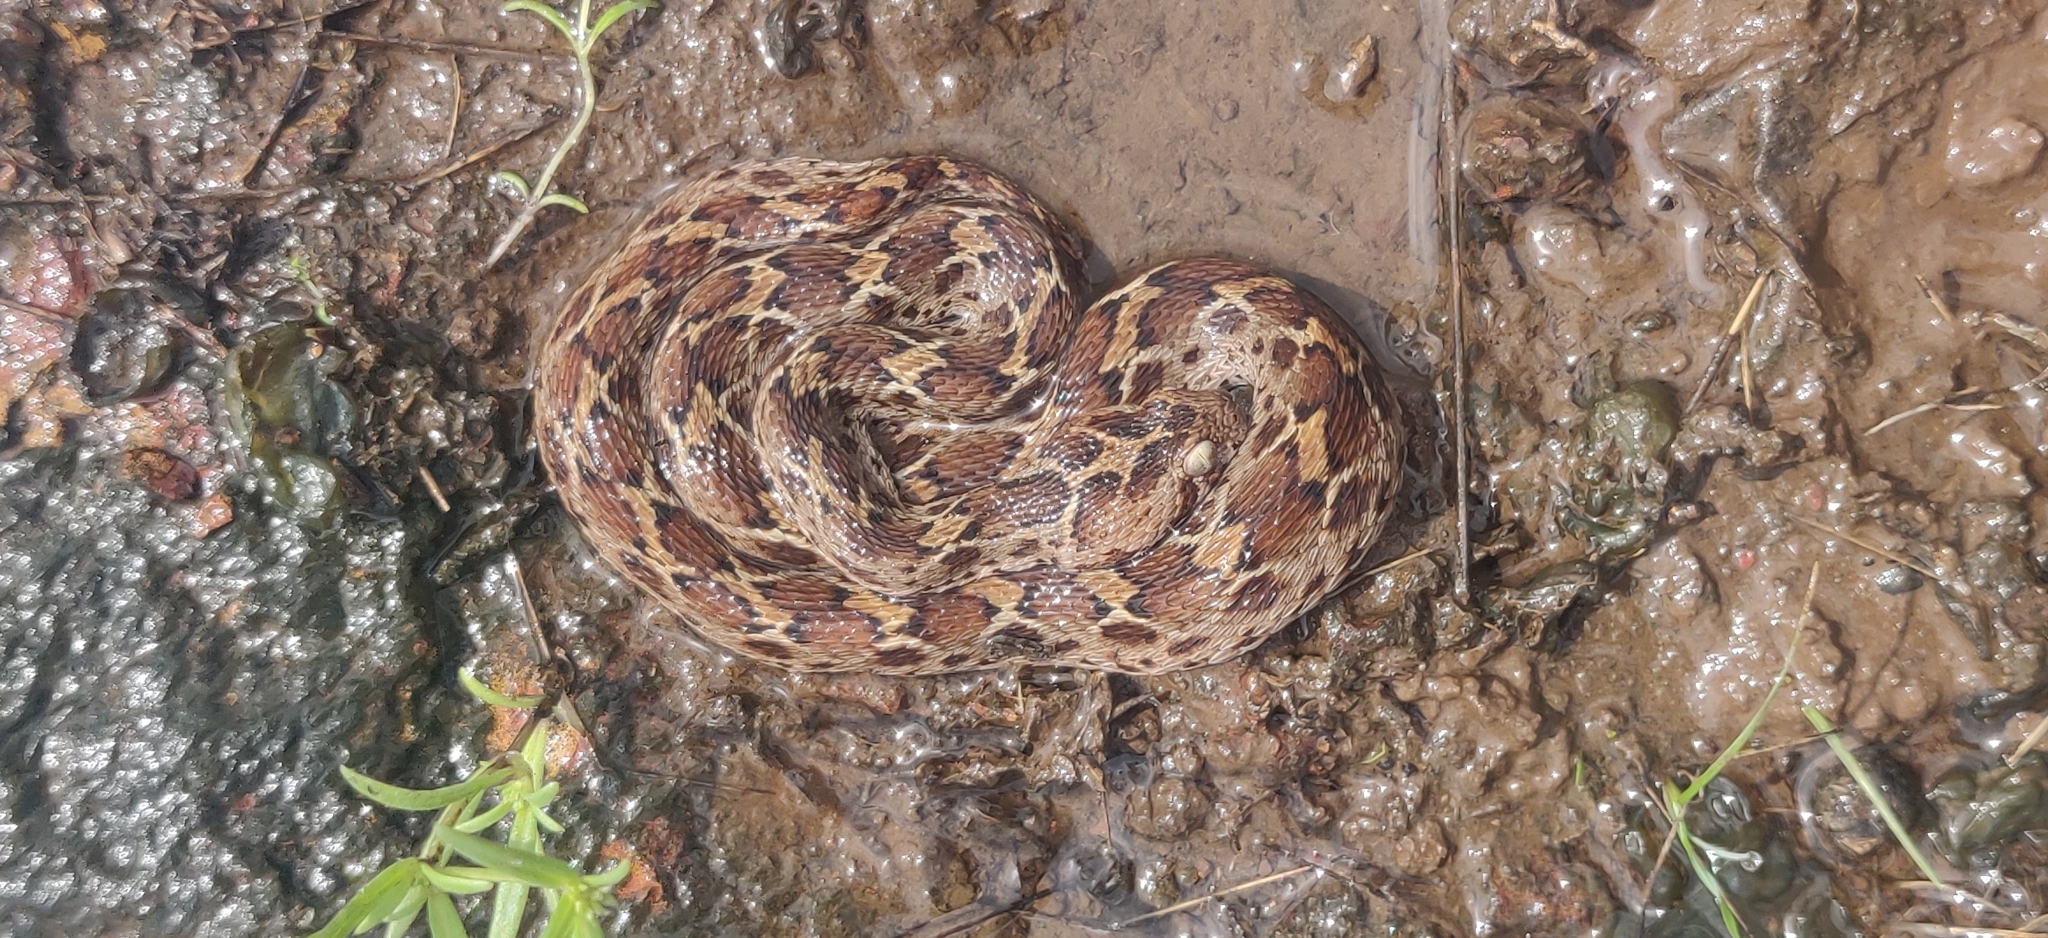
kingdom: Animalia
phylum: Chordata
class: Squamata
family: Viperidae
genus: Echis
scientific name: Echis carinatus
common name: Saw-scaled viper
